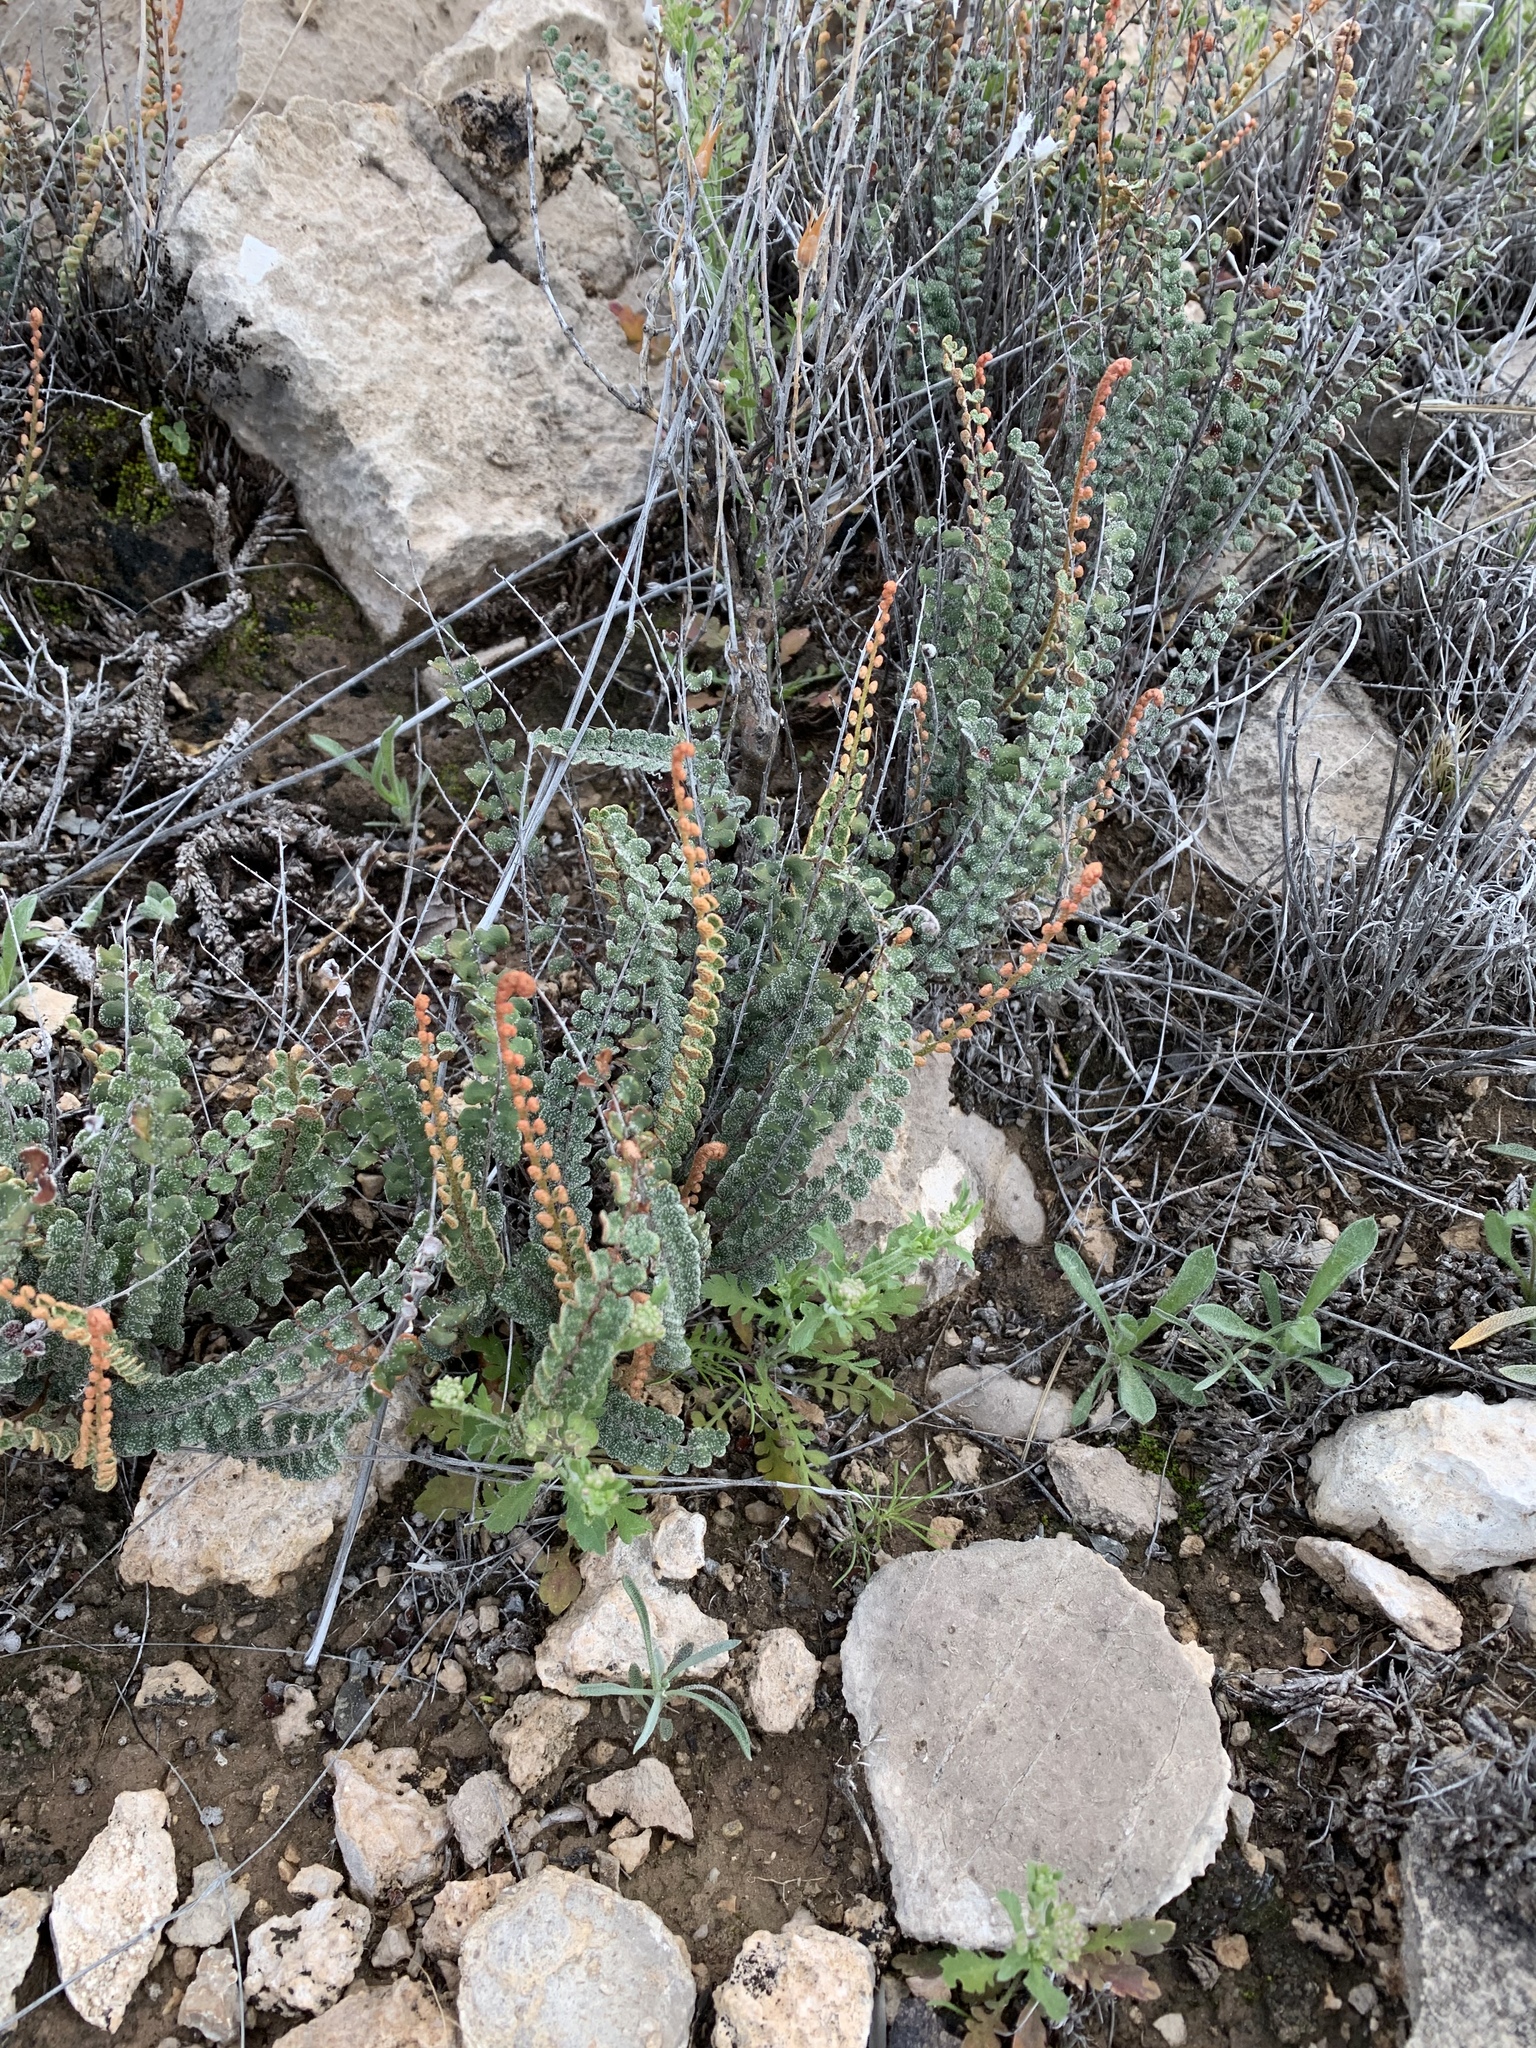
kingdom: Plantae
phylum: Tracheophyta
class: Polypodiopsida
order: Polypodiales
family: Pteridaceae
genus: Astrolepis
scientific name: Astrolepis cochisensis
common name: Scaly cloak fern
